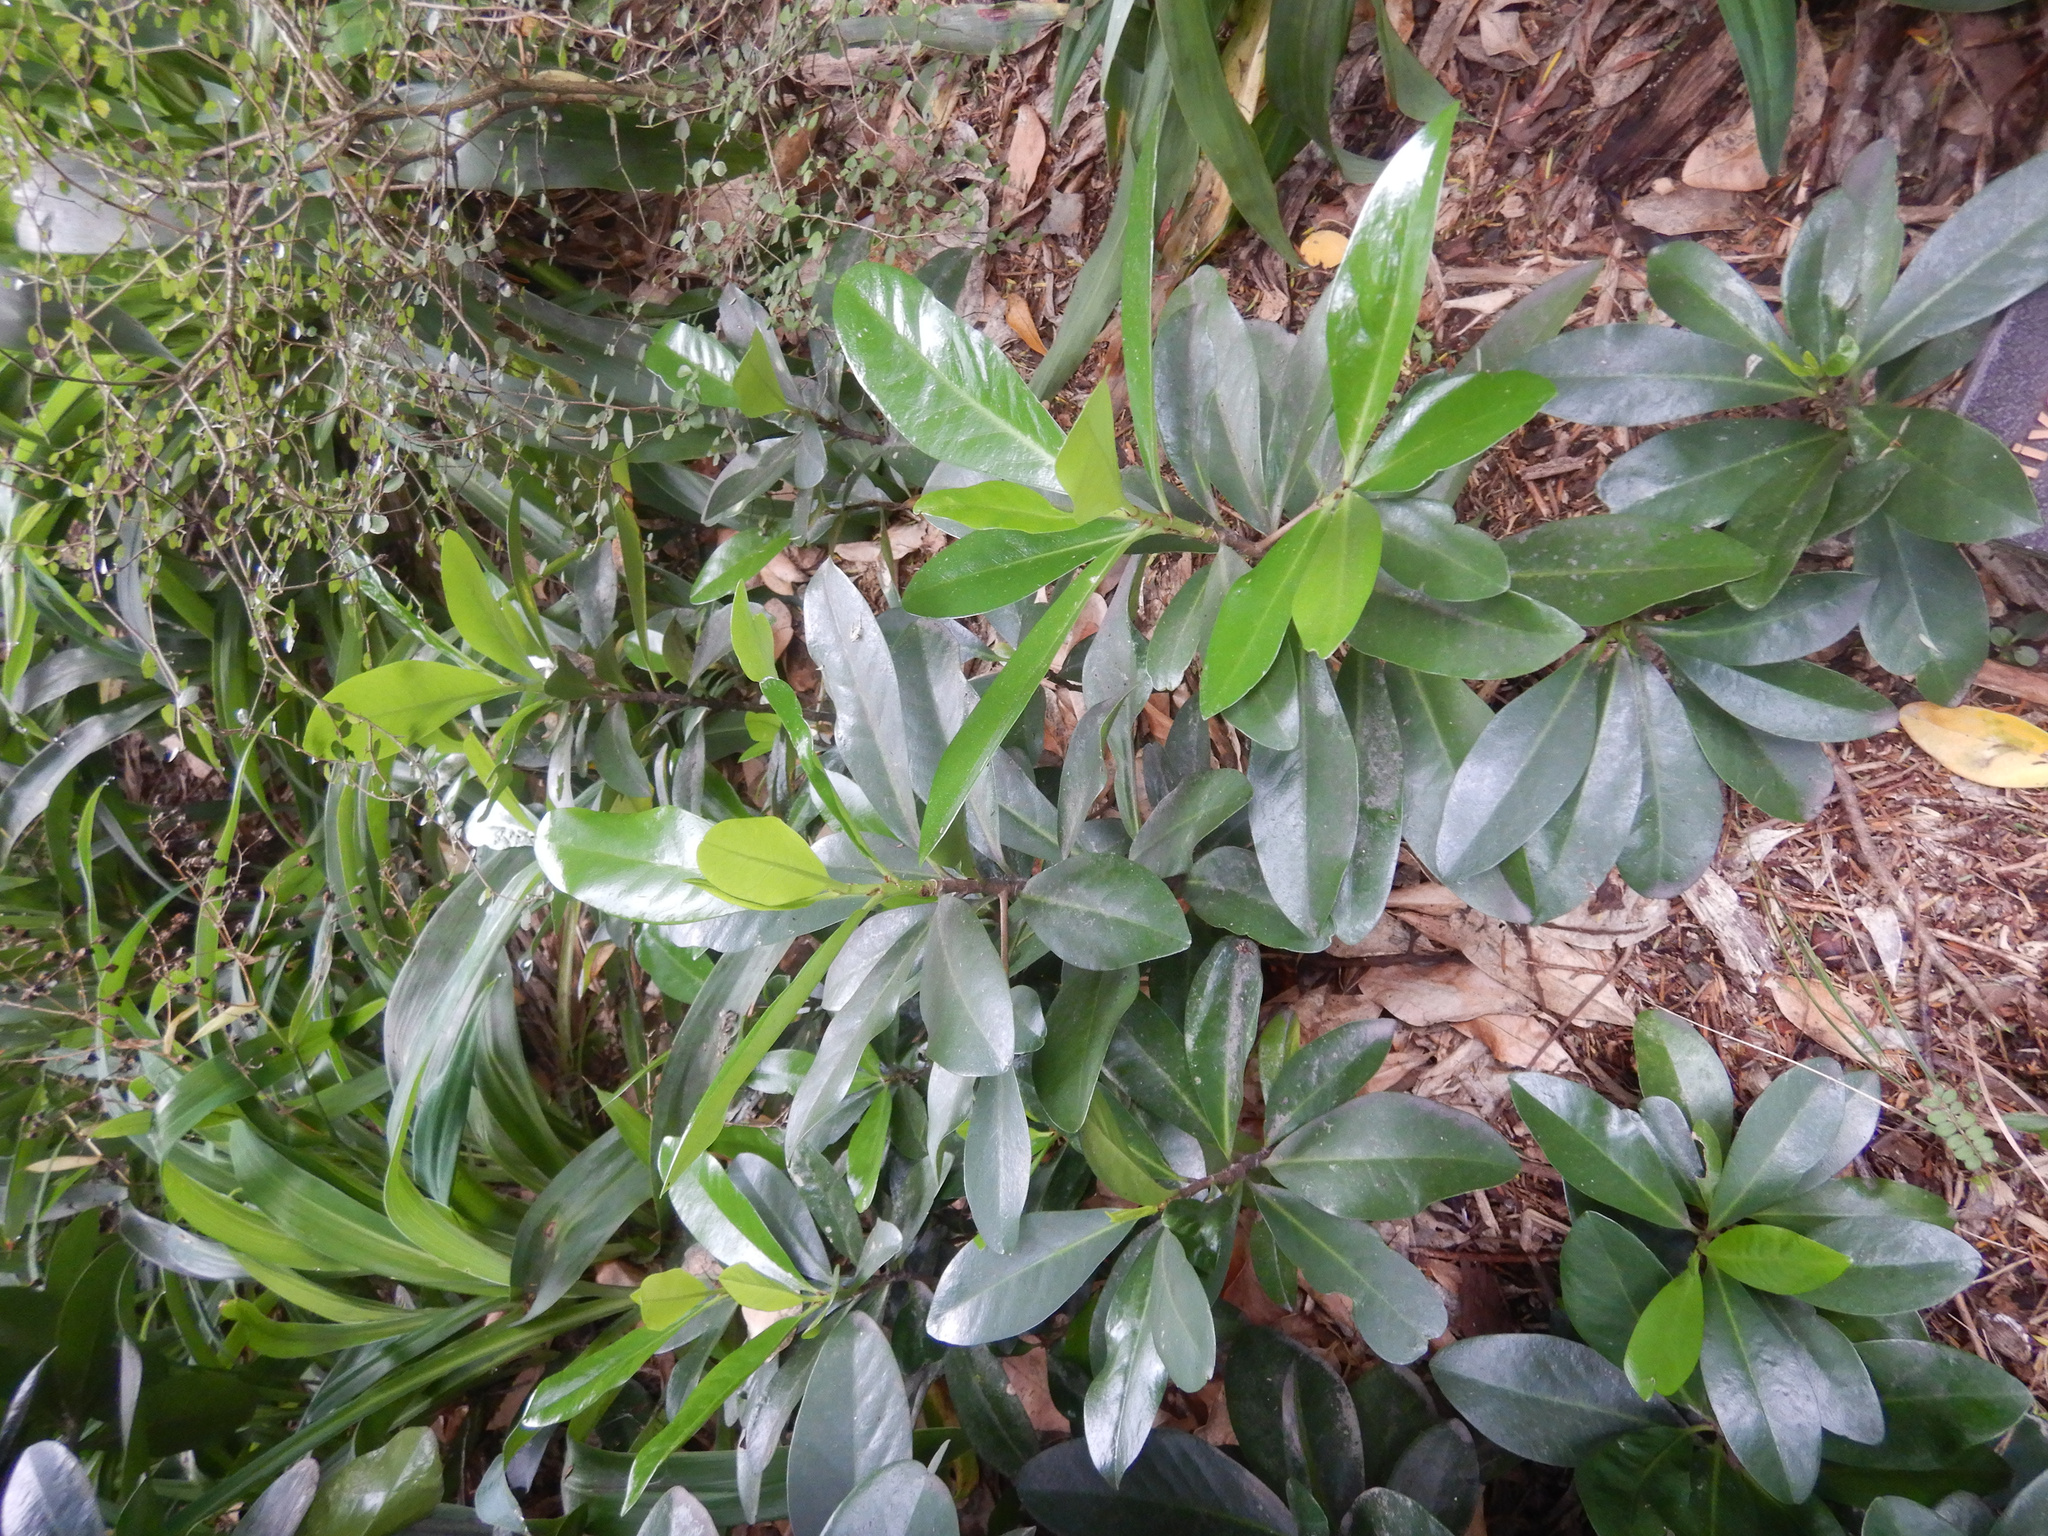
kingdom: Plantae
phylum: Tracheophyta
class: Magnoliopsida
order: Cucurbitales
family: Corynocarpaceae
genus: Corynocarpus
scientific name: Corynocarpus laevigatus
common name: New zealand laurel
